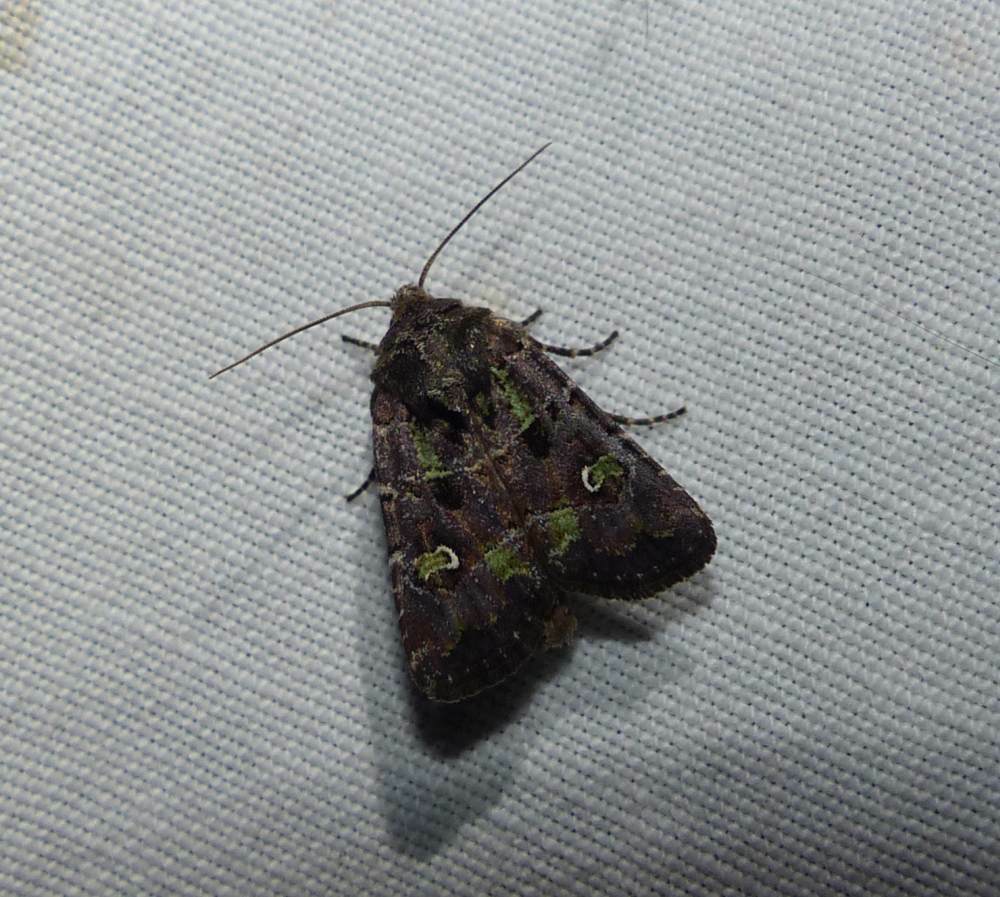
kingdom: Animalia
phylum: Arthropoda
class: Insecta
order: Lepidoptera
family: Noctuidae
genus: Lacinipolia
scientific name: Lacinipolia renigera
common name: Kidney-spotted minor
